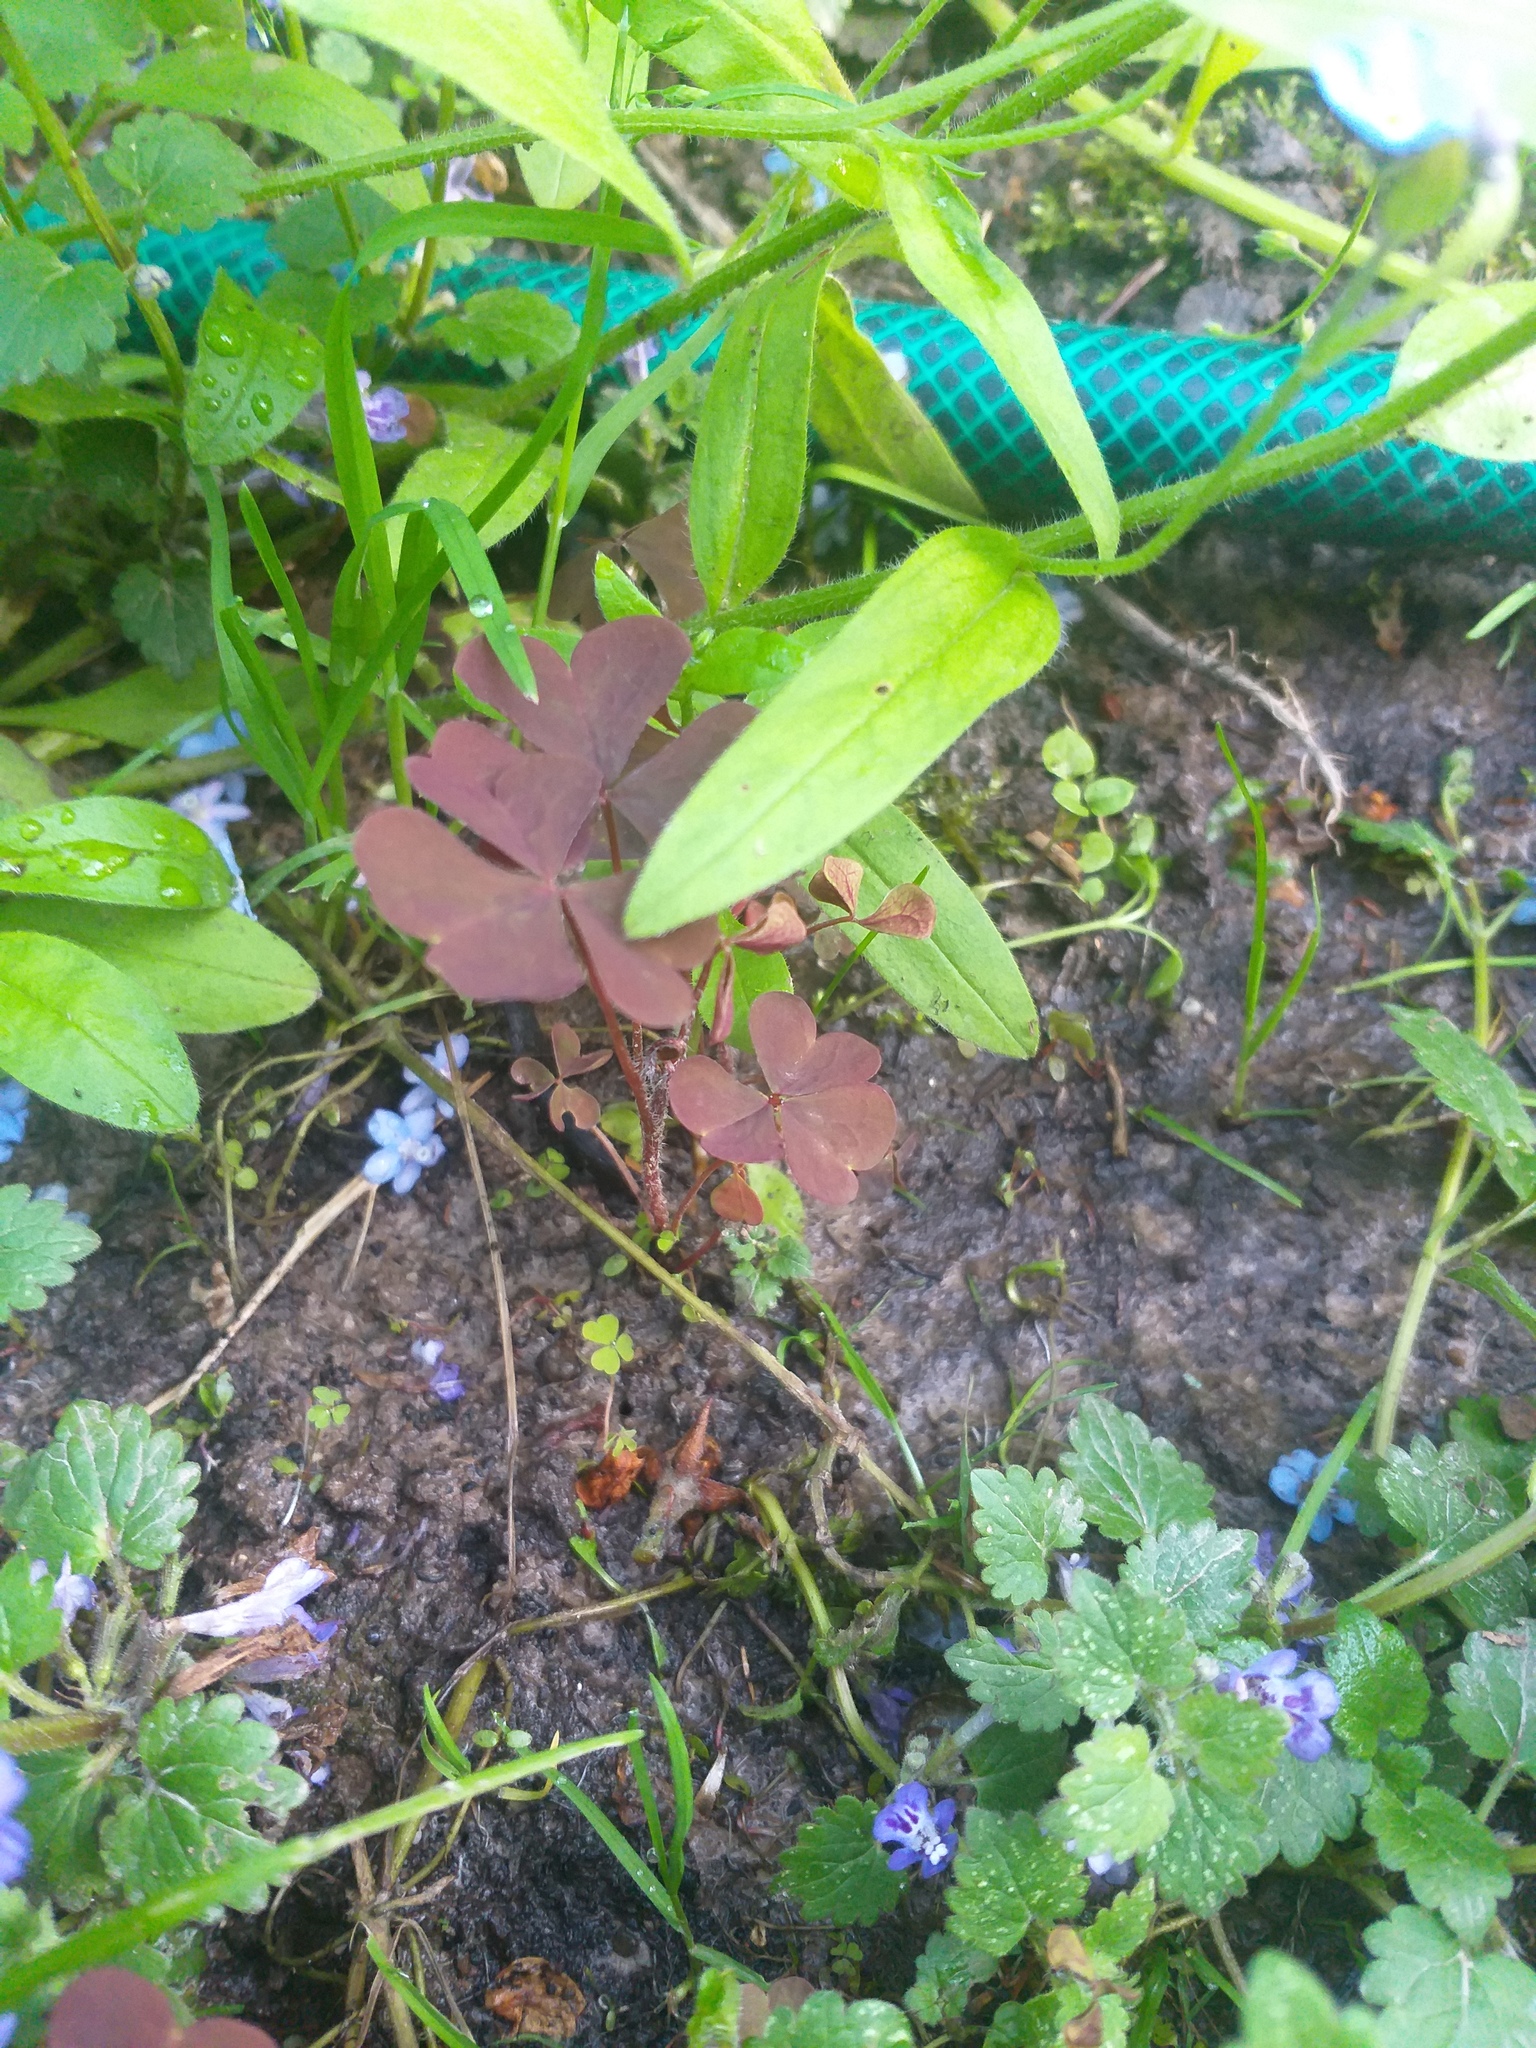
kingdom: Plantae
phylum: Tracheophyta
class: Magnoliopsida
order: Oxalidales
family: Oxalidaceae
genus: Oxalis
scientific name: Oxalis stricta
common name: Upright yellow-sorrel
